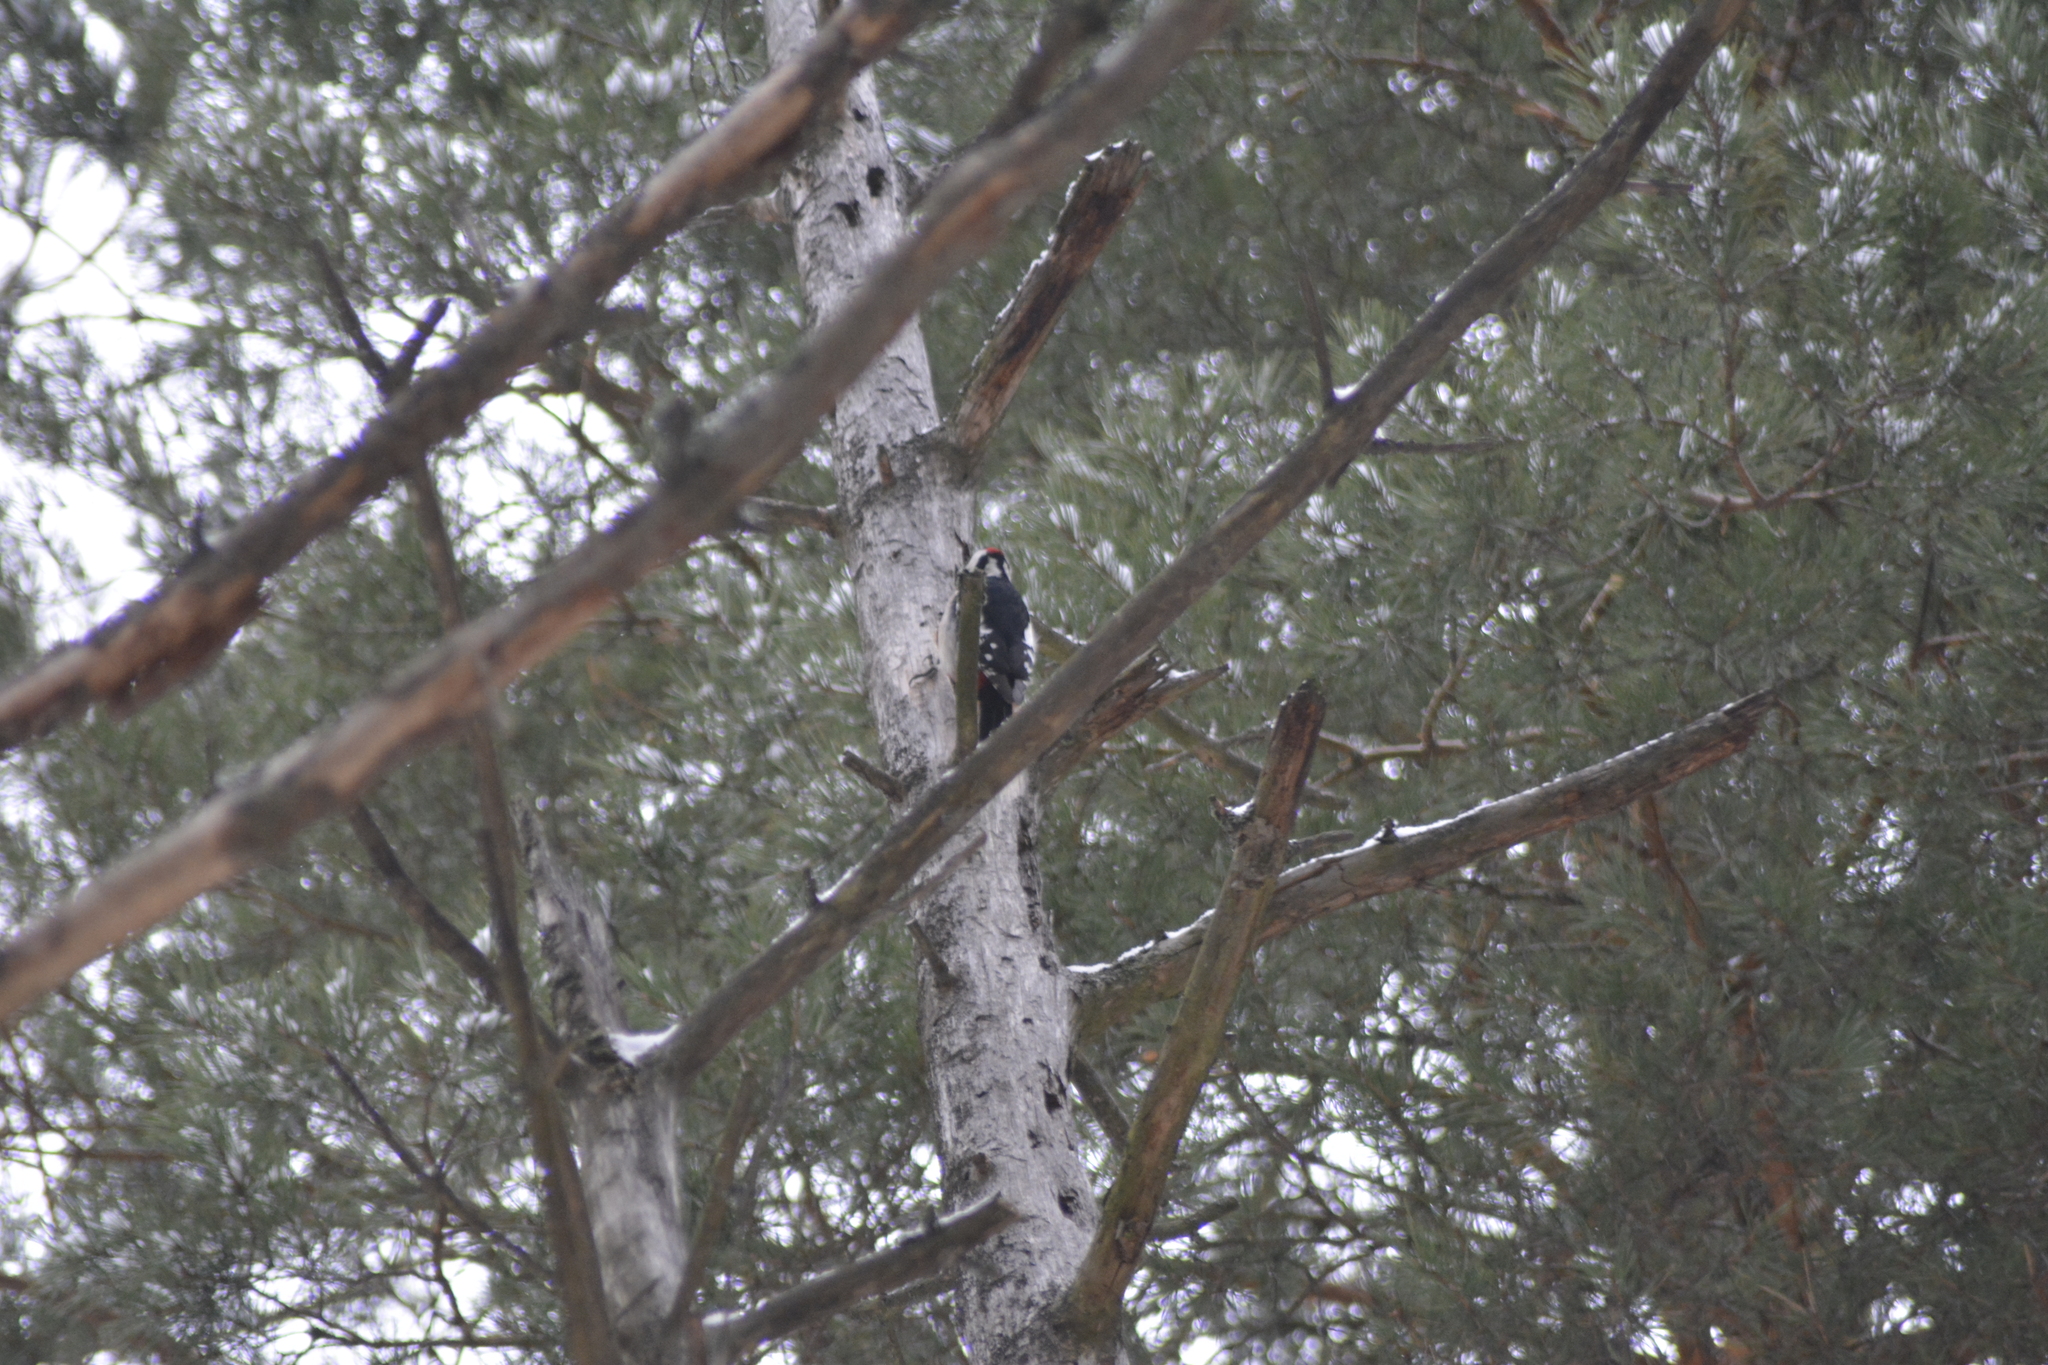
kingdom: Animalia
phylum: Chordata
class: Aves
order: Piciformes
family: Picidae
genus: Dendrocopos
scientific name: Dendrocopos major
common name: Great spotted woodpecker
